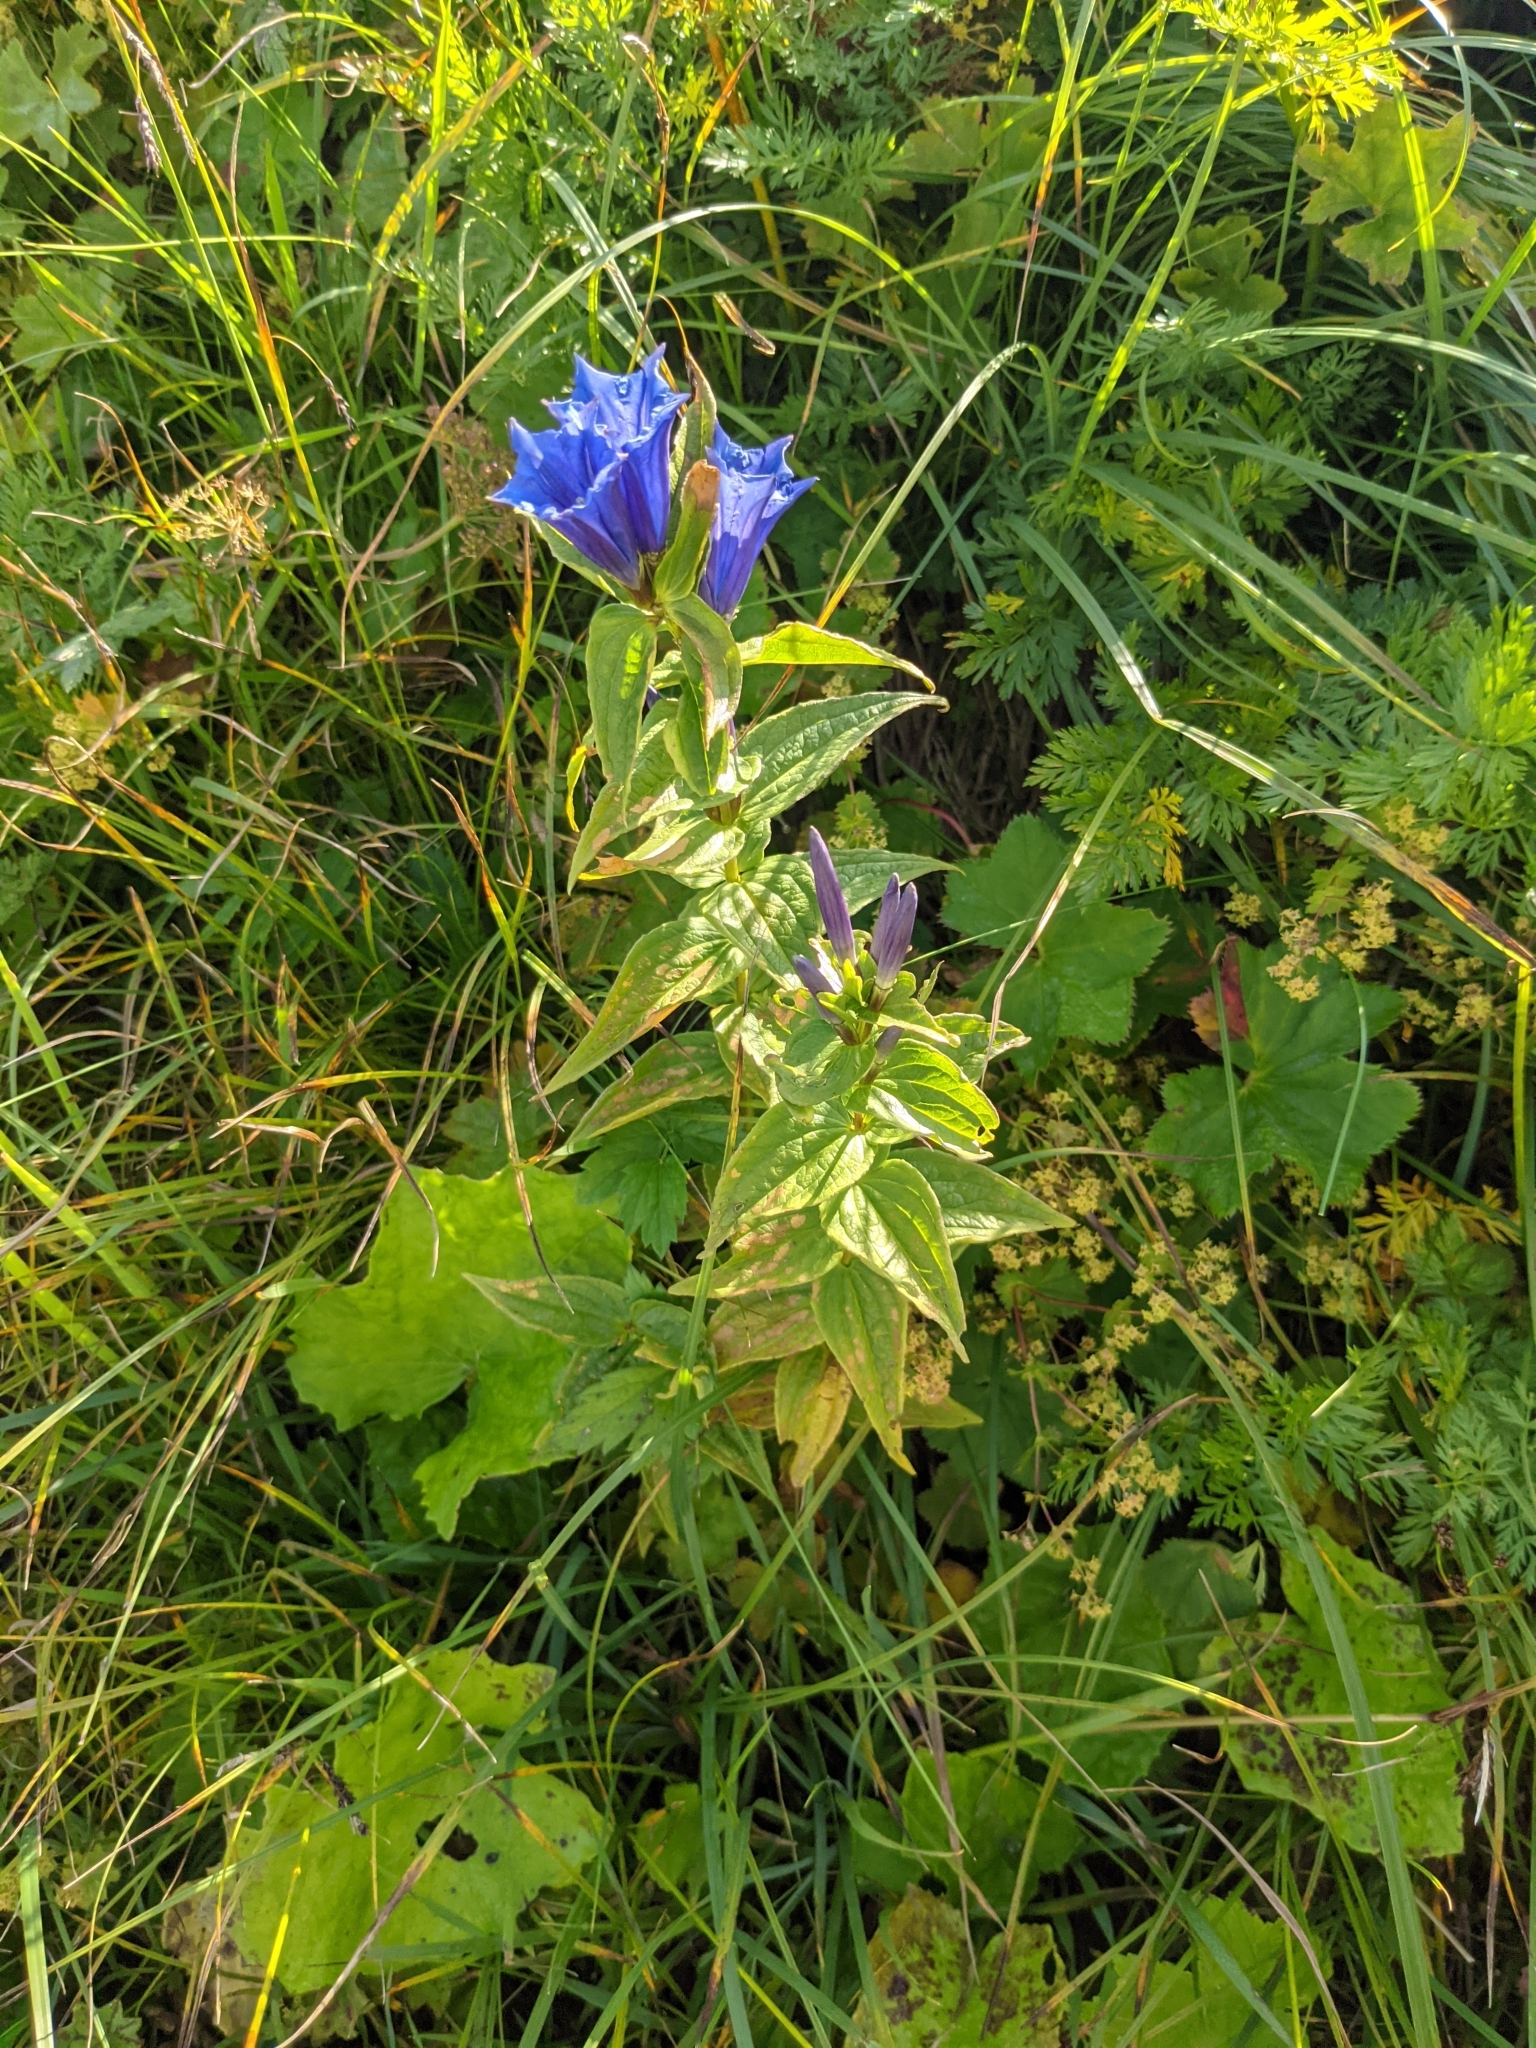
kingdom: Plantae
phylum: Tracheophyta
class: Magnoliopsida
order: Gentianales
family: Gentianaceae
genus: Gentiana
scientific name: Gentiana asclepiadea
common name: Willow gentian
